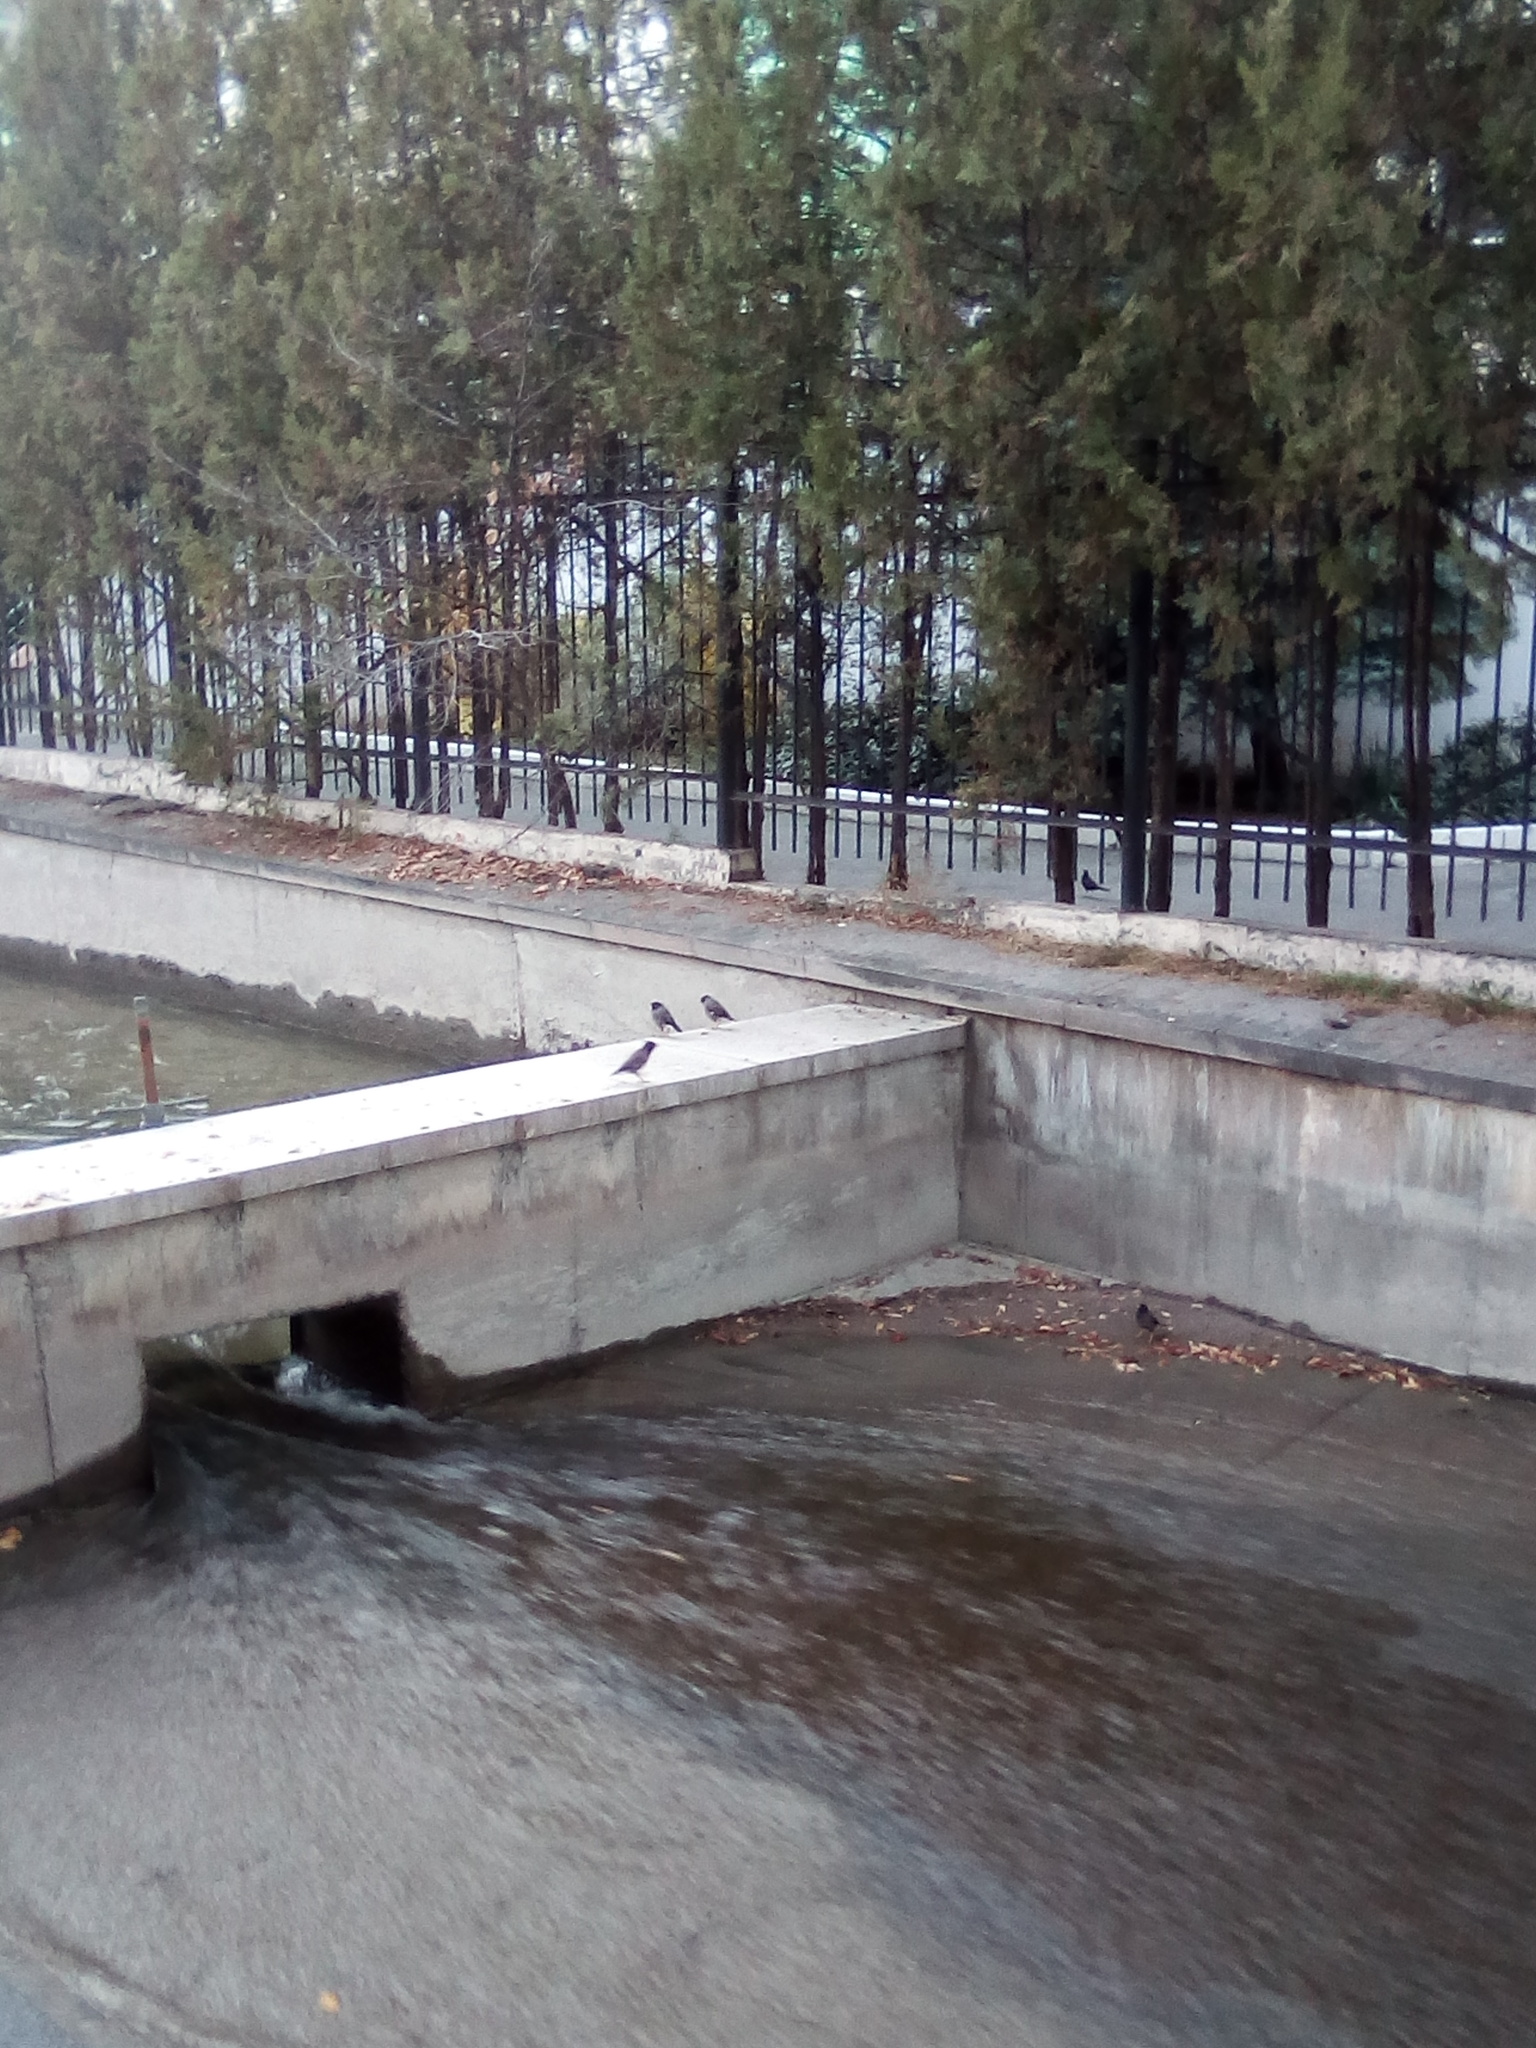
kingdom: Animalia
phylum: Chordata
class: Aves
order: Passeriformes
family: Sturnidae
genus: Acridotheres
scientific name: Acridotheres tristis
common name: Common myna
